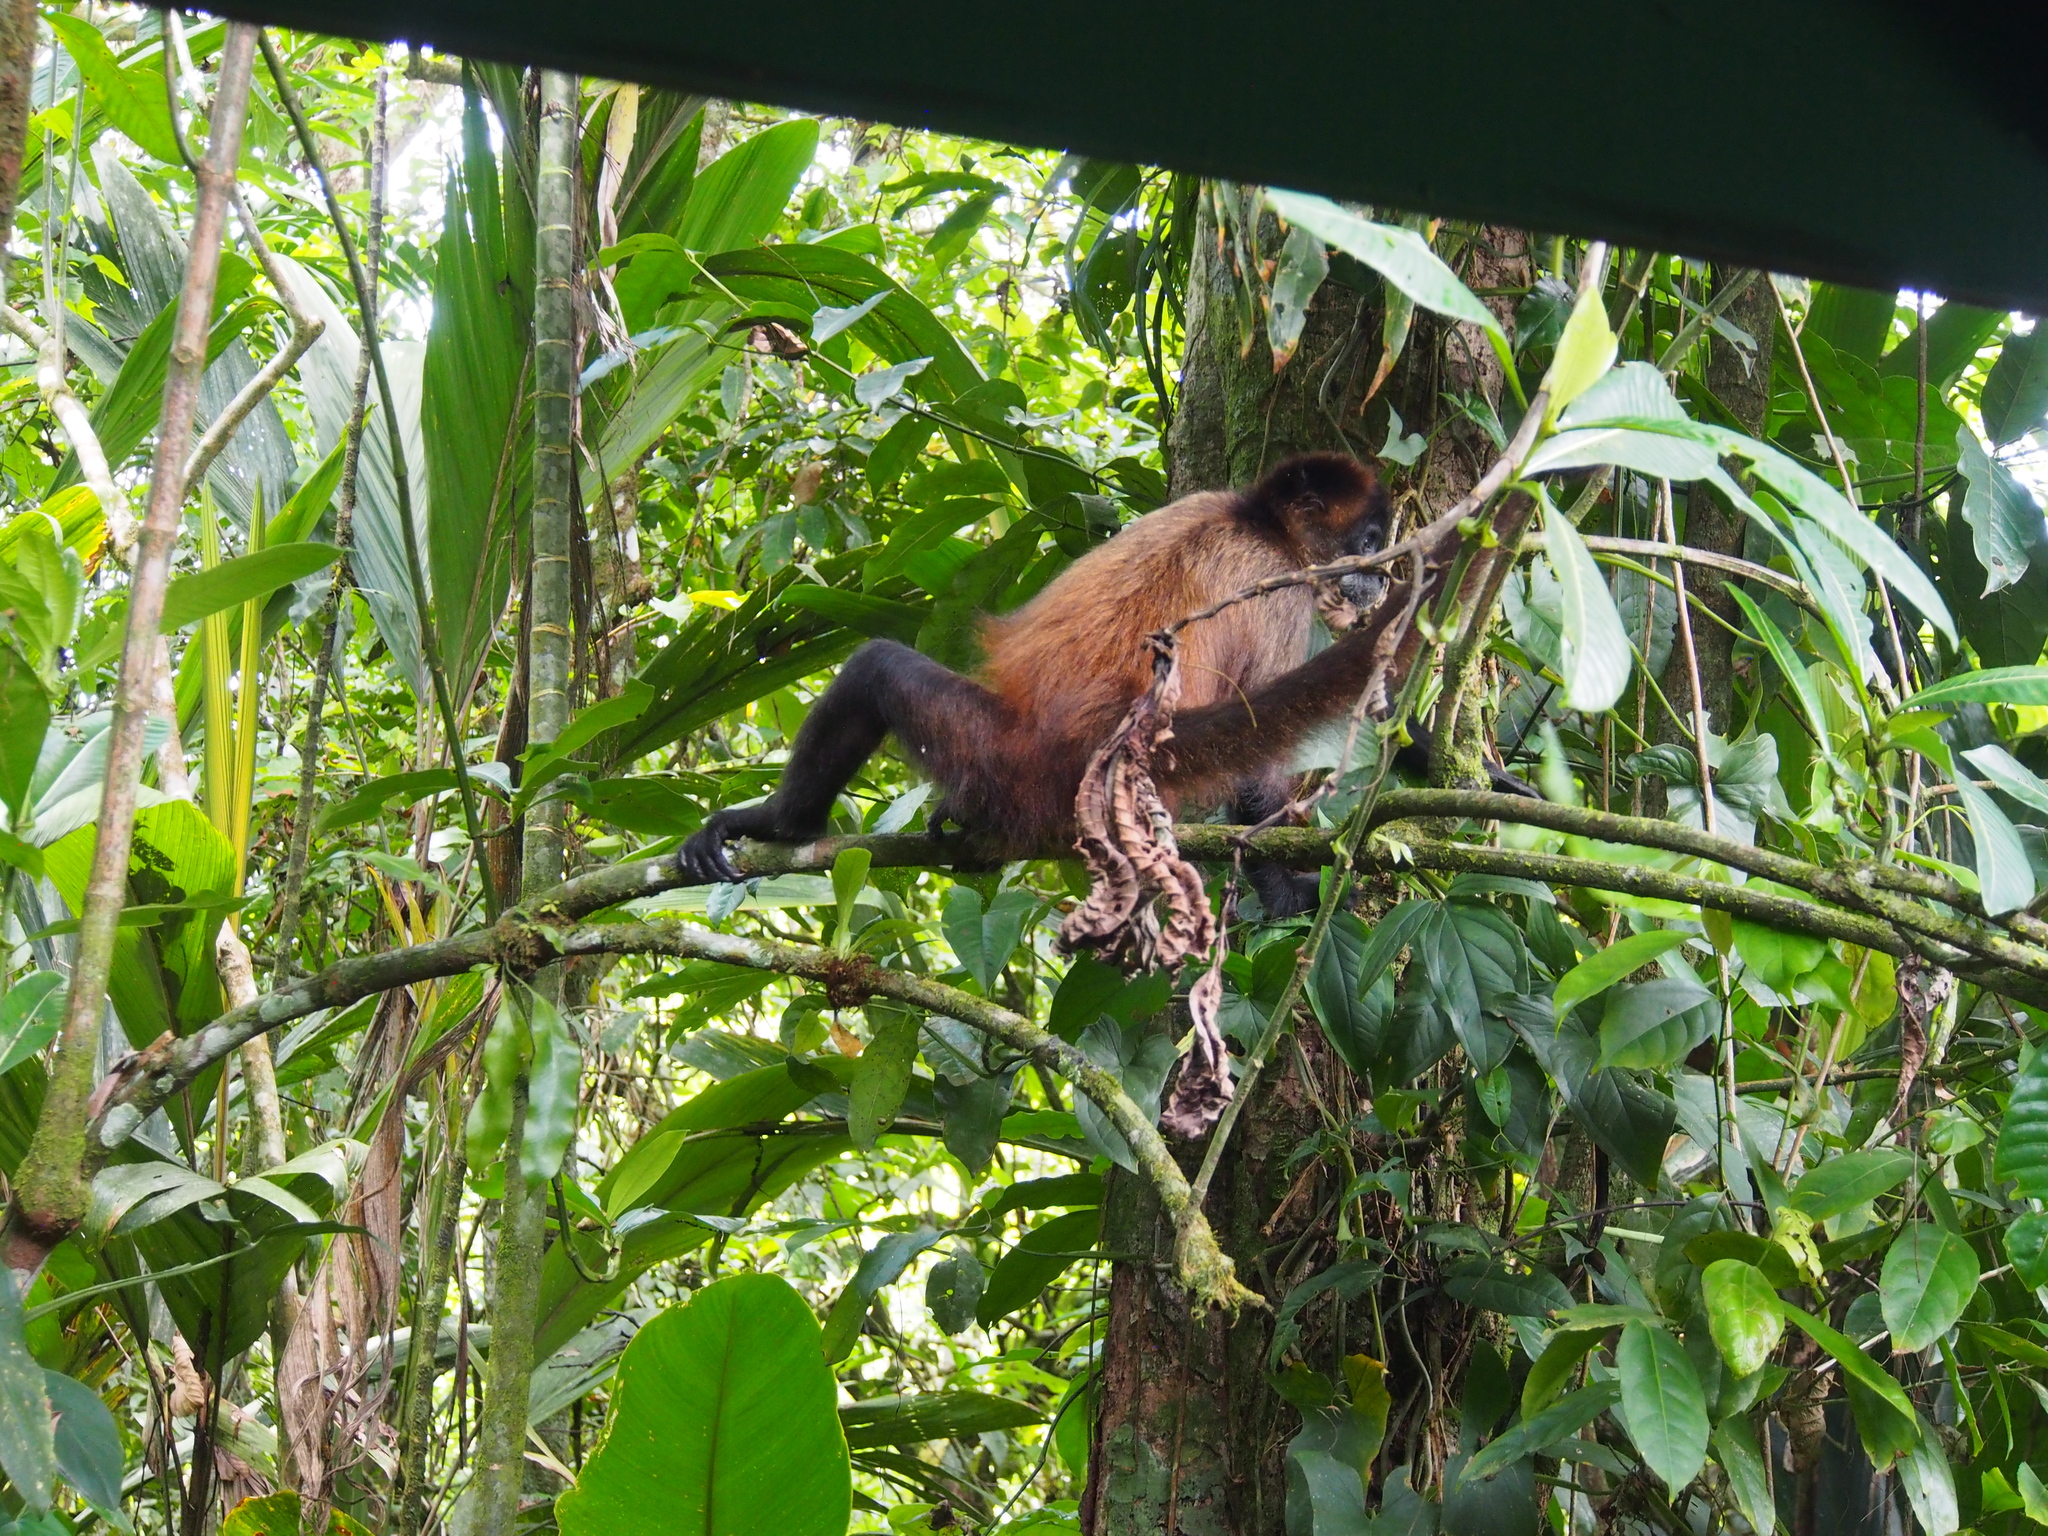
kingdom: Animalia
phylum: Chordata
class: Mammalia
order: Primates
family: Atelidae
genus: Ateles
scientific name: Ateles geoffroyi
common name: Black-handed spider monkey
